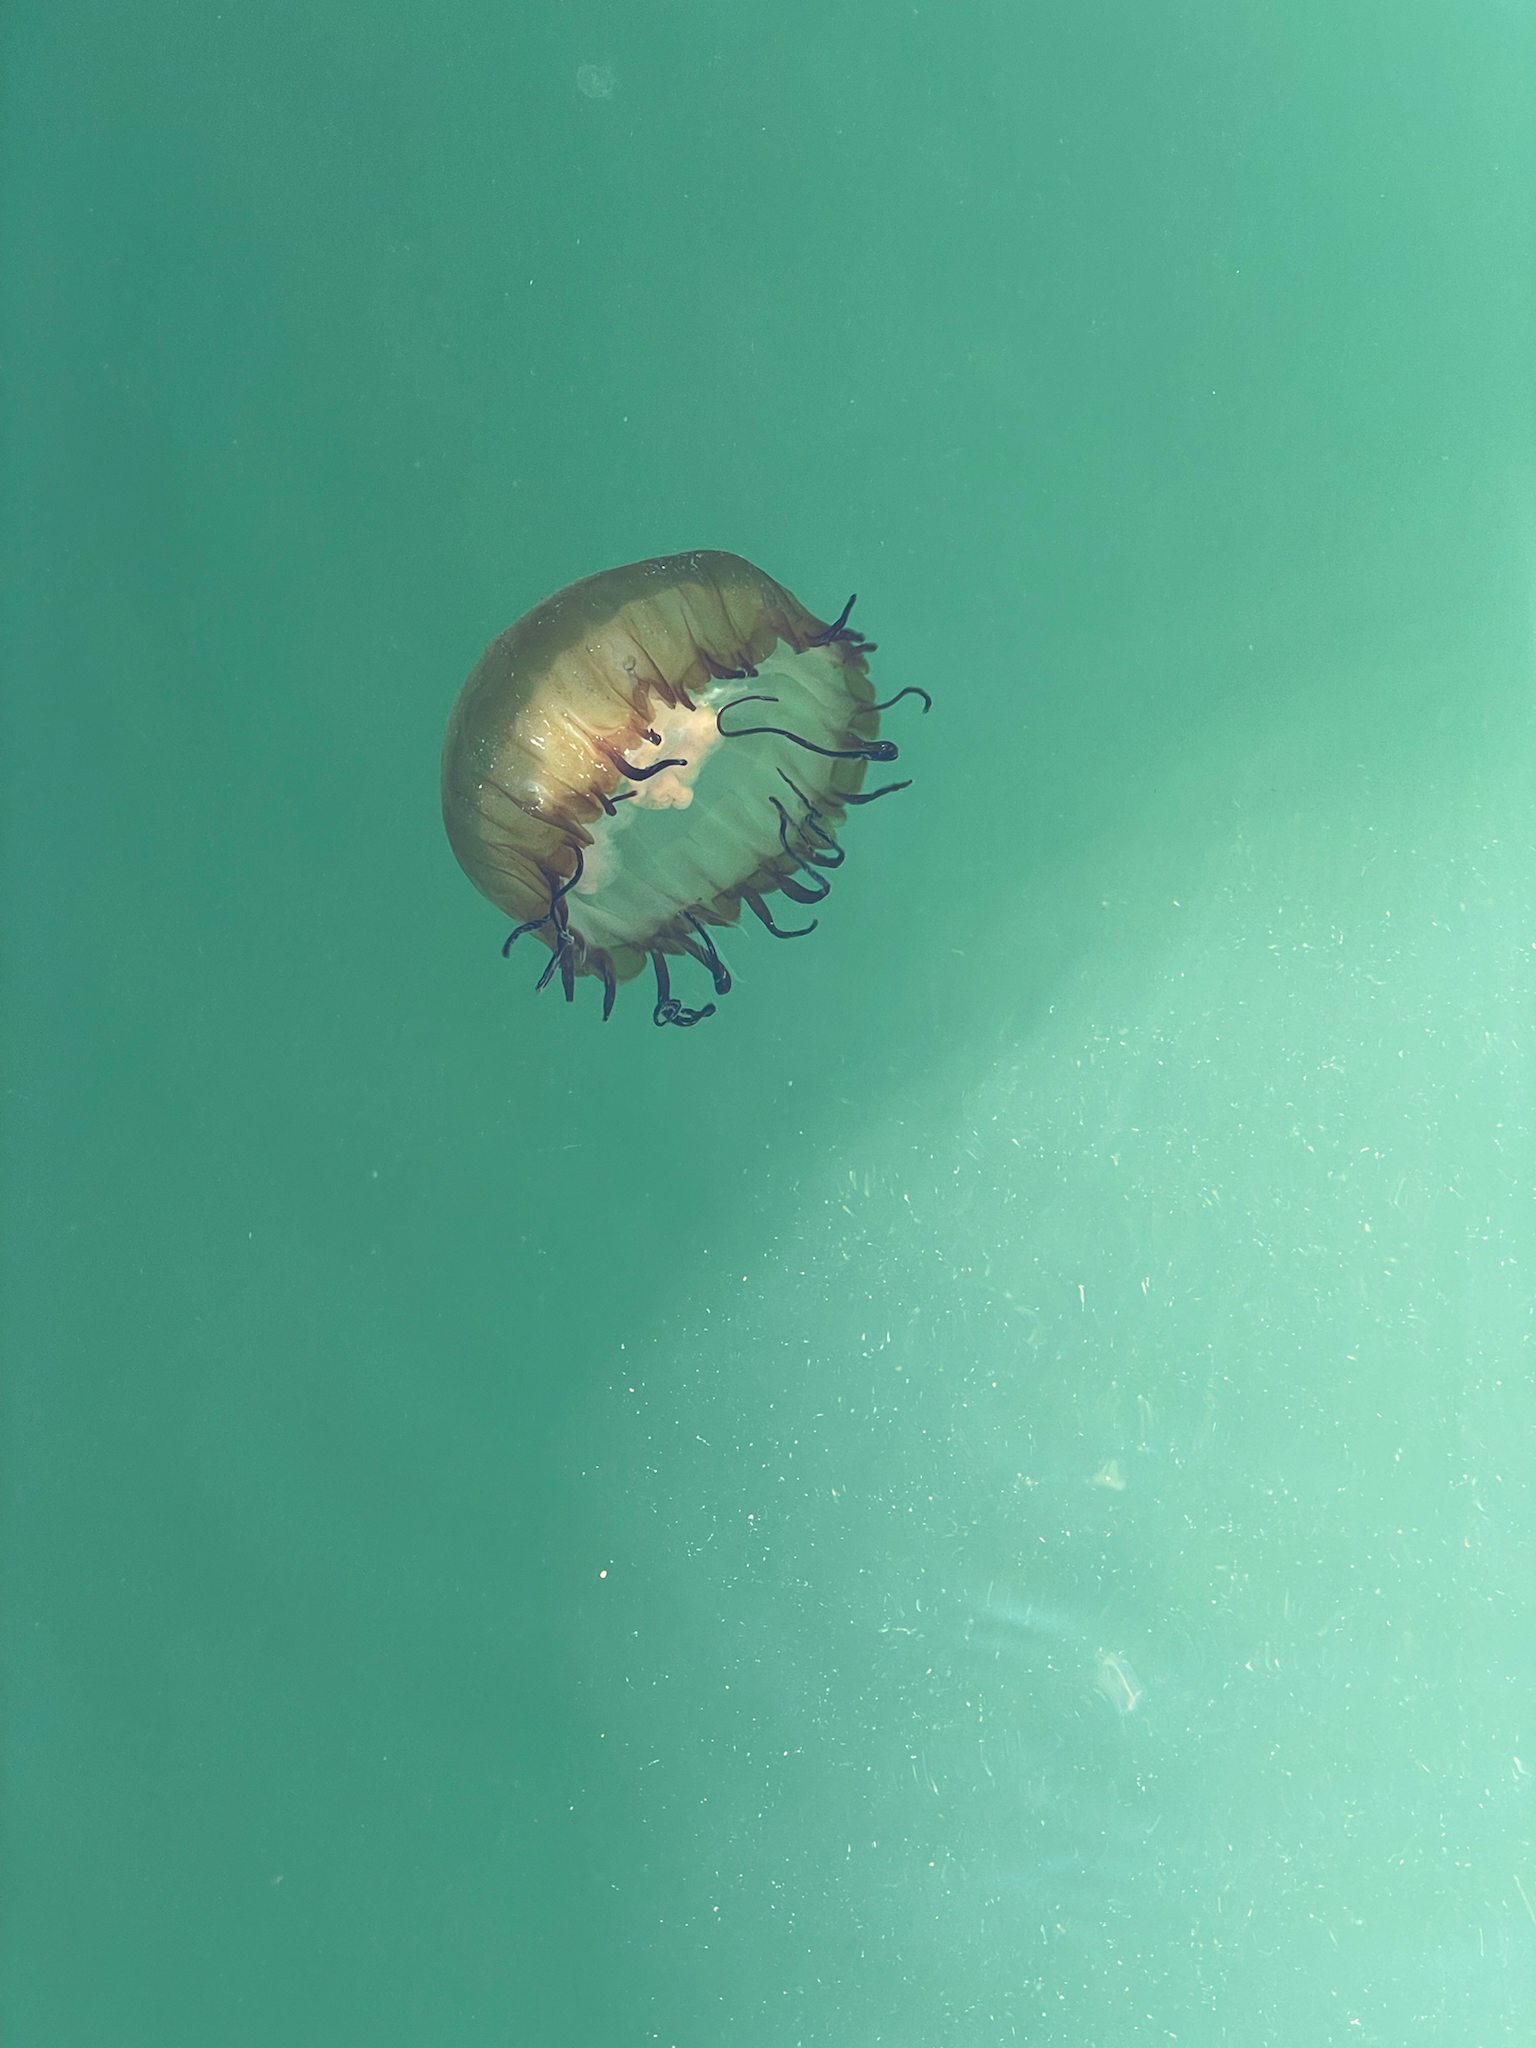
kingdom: Animalia
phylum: Cnidaria
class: Scyphozoa
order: Semaeostomeae
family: Pelagiidae
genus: Chrysaora
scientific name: Chrysaora fuscescens
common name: Sea nettle
